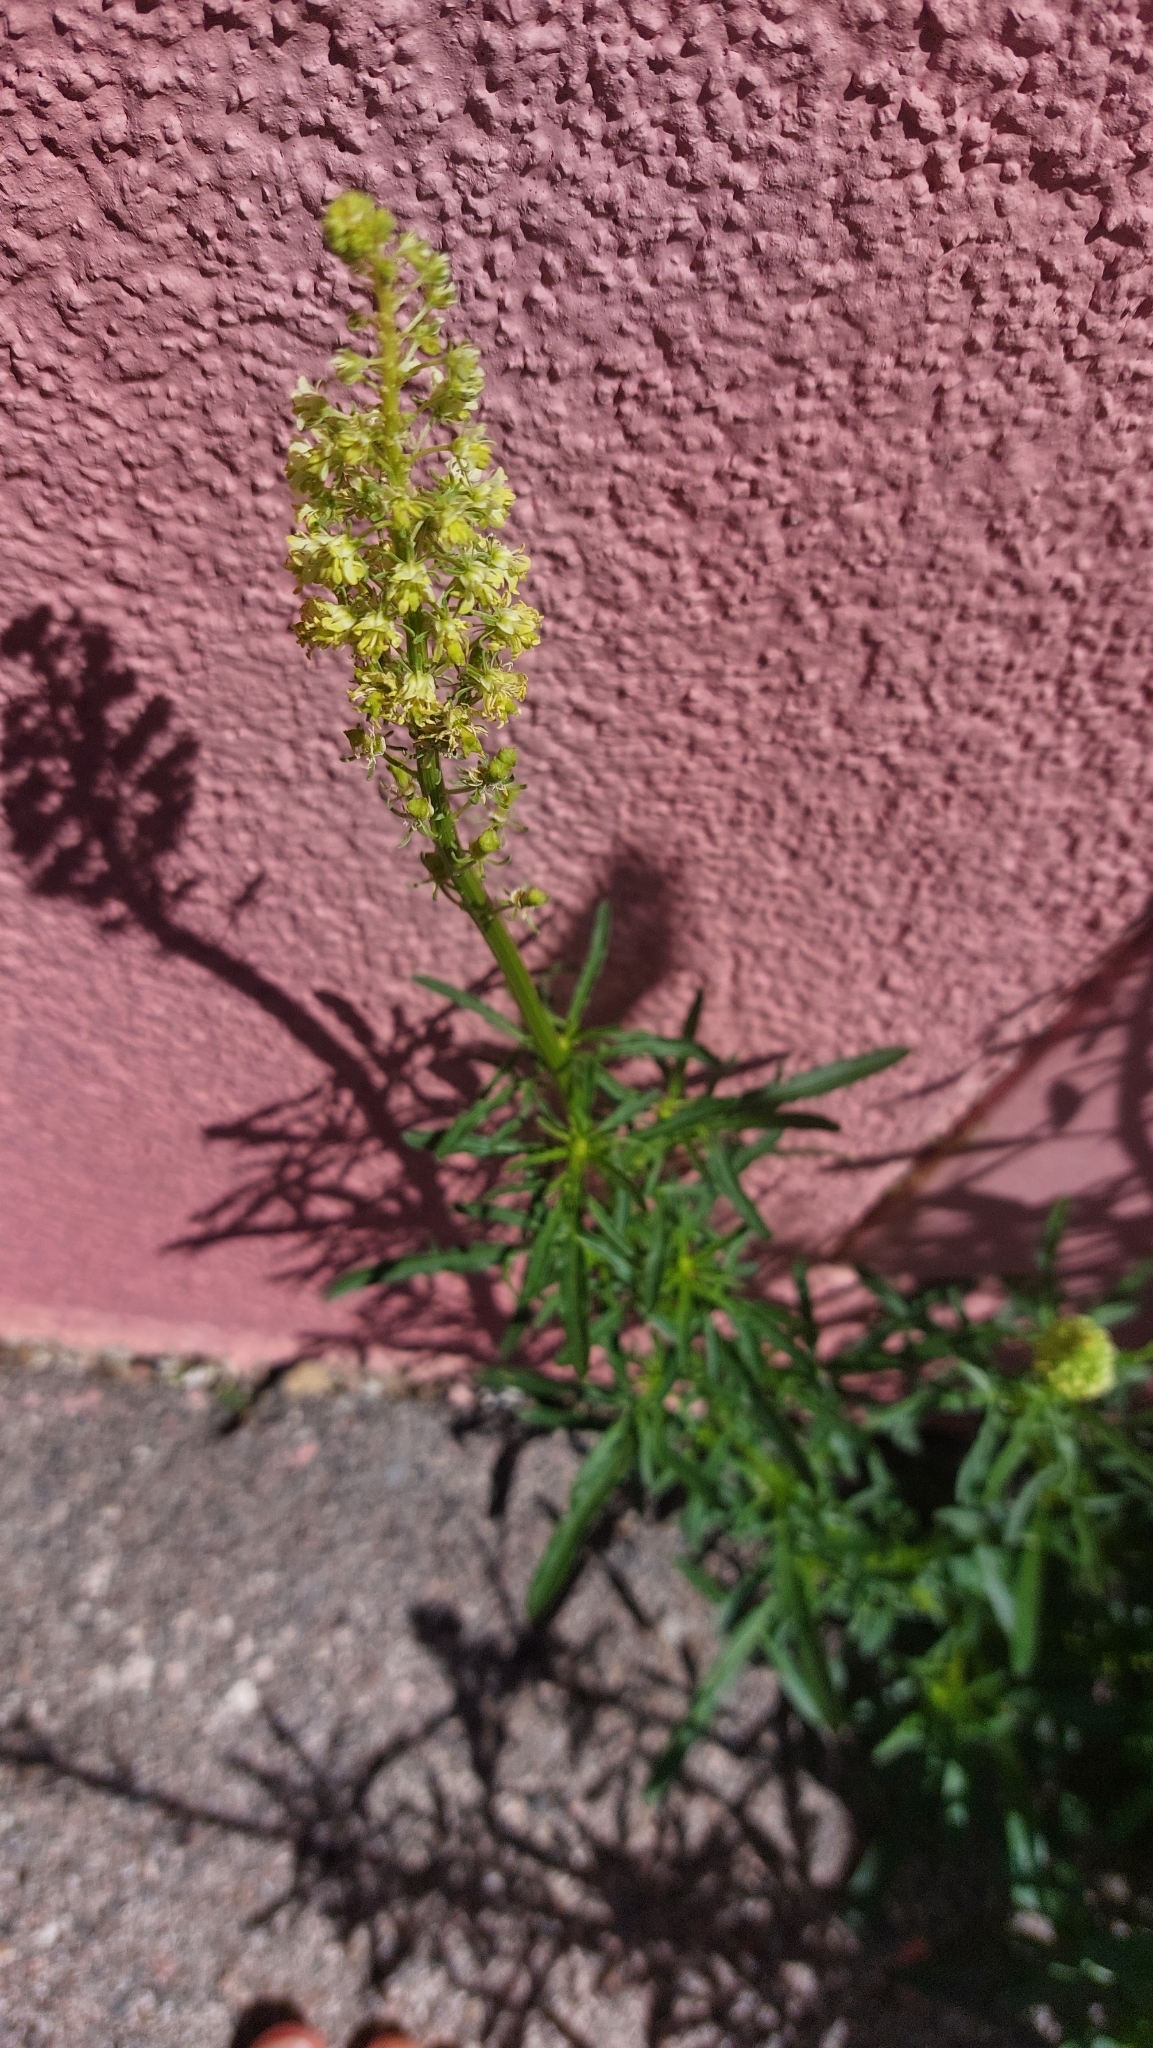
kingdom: Plantae
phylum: Tracheophyta
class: Magnoliopsida
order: Brassicales
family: Resedaceae
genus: Reseda
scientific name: Reseda lutea
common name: Wild mignonette
